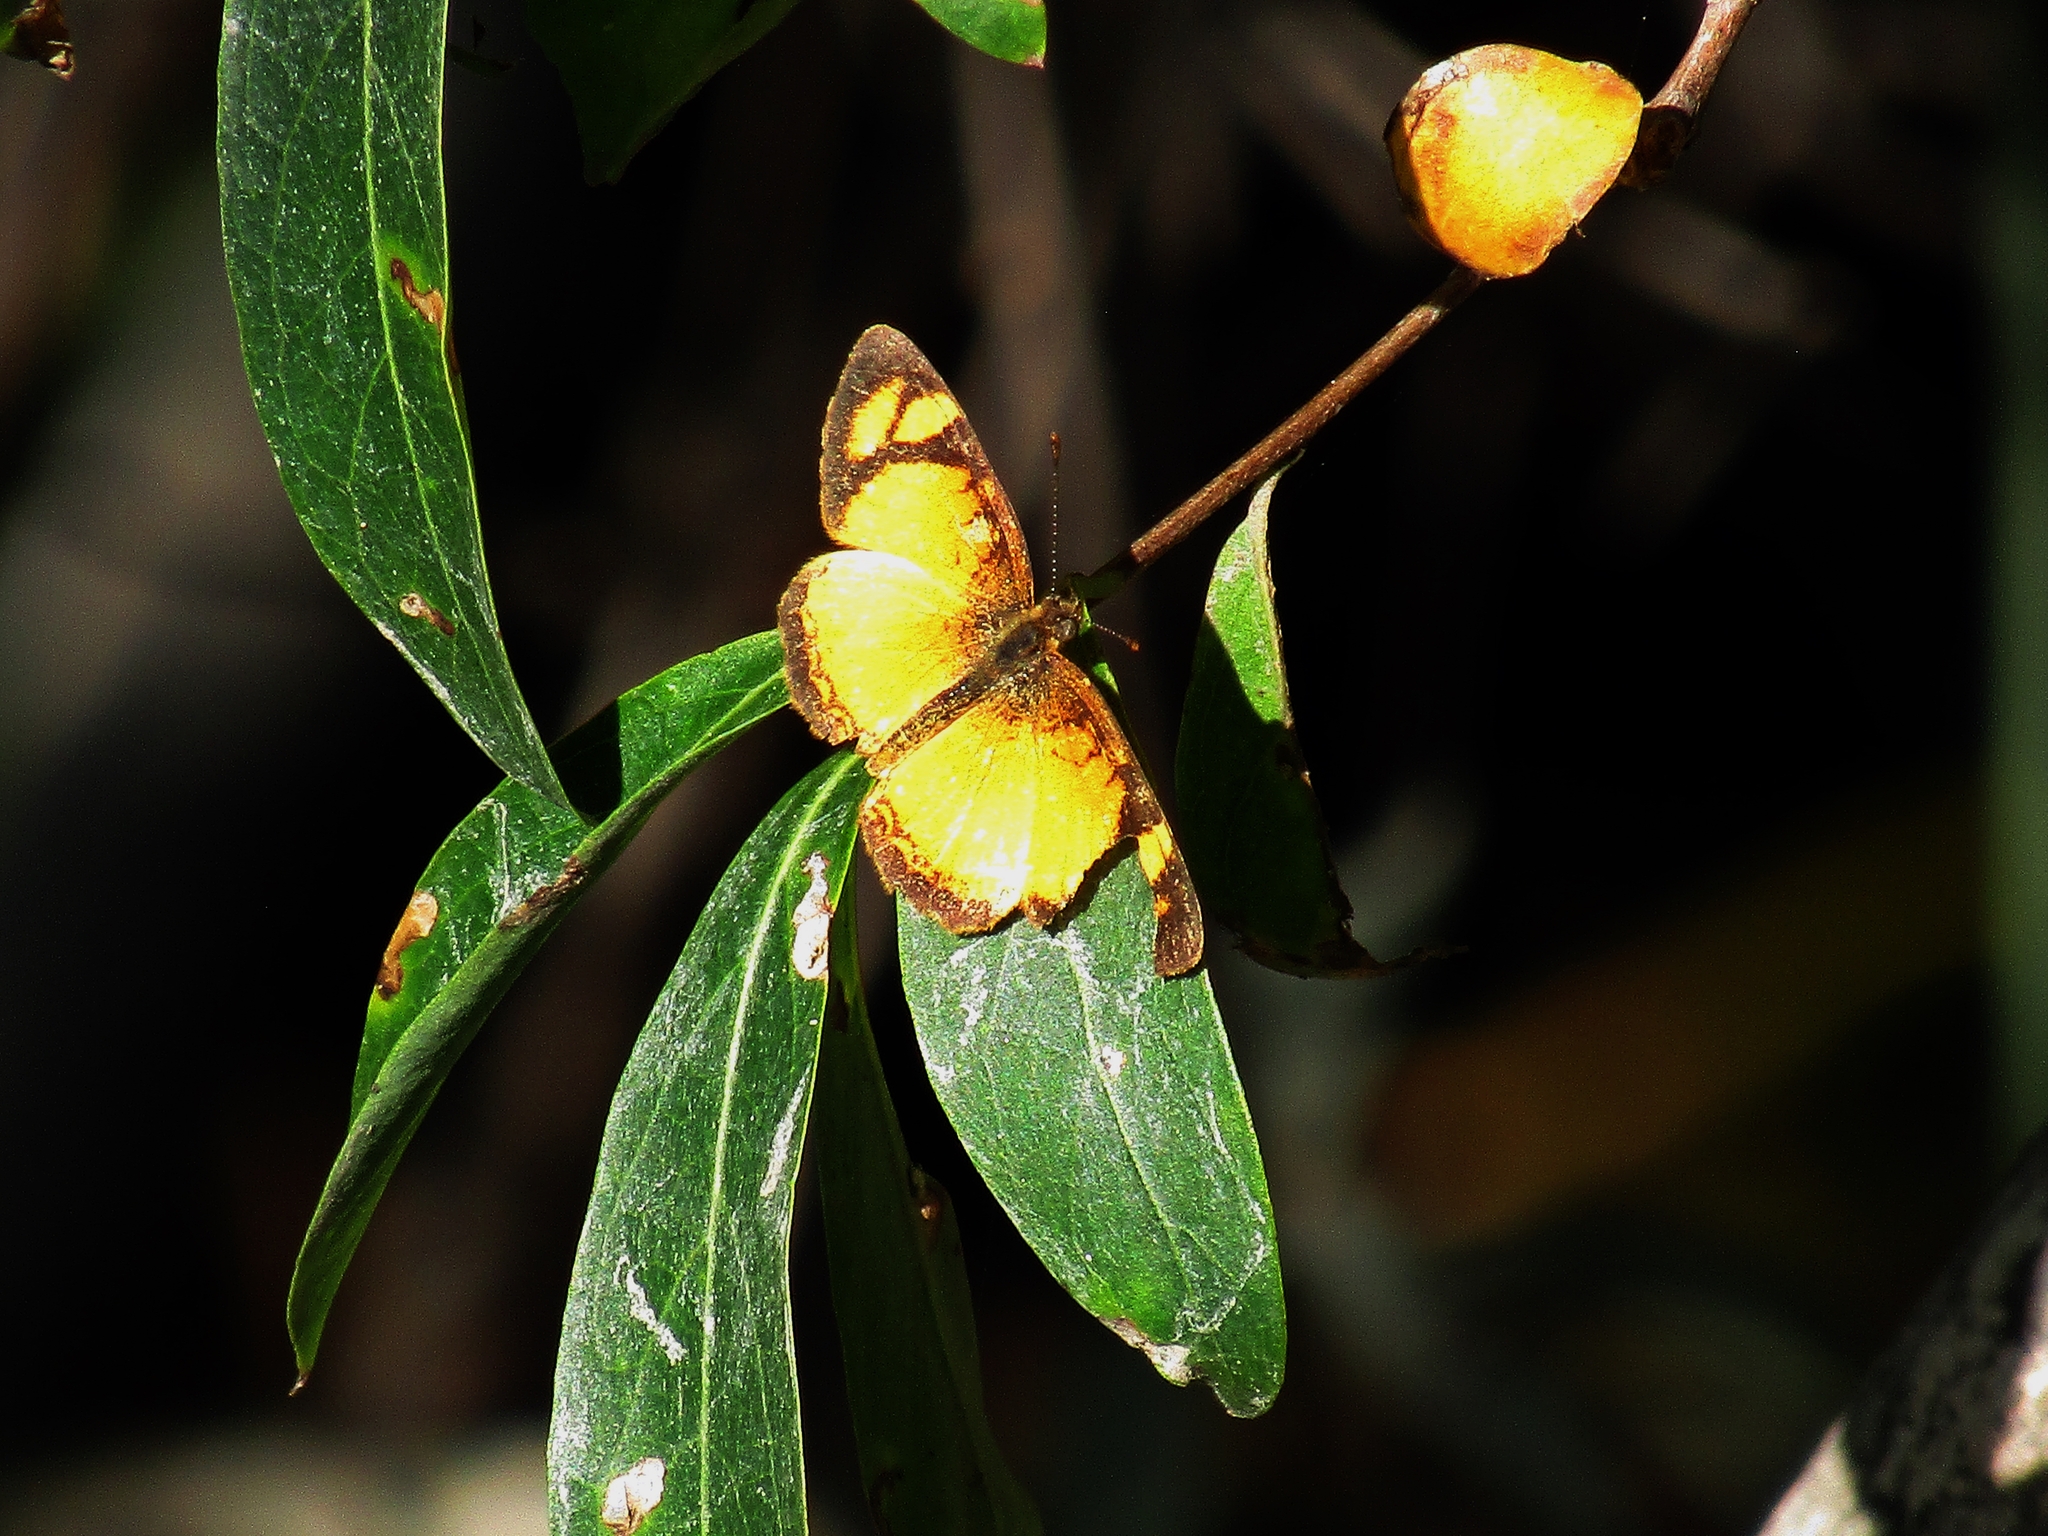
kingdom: Animalia
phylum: Arthropoda
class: Insecta
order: Lepidoptera
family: Nymphalidae
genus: Tegosa
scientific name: Tegosa claudina
